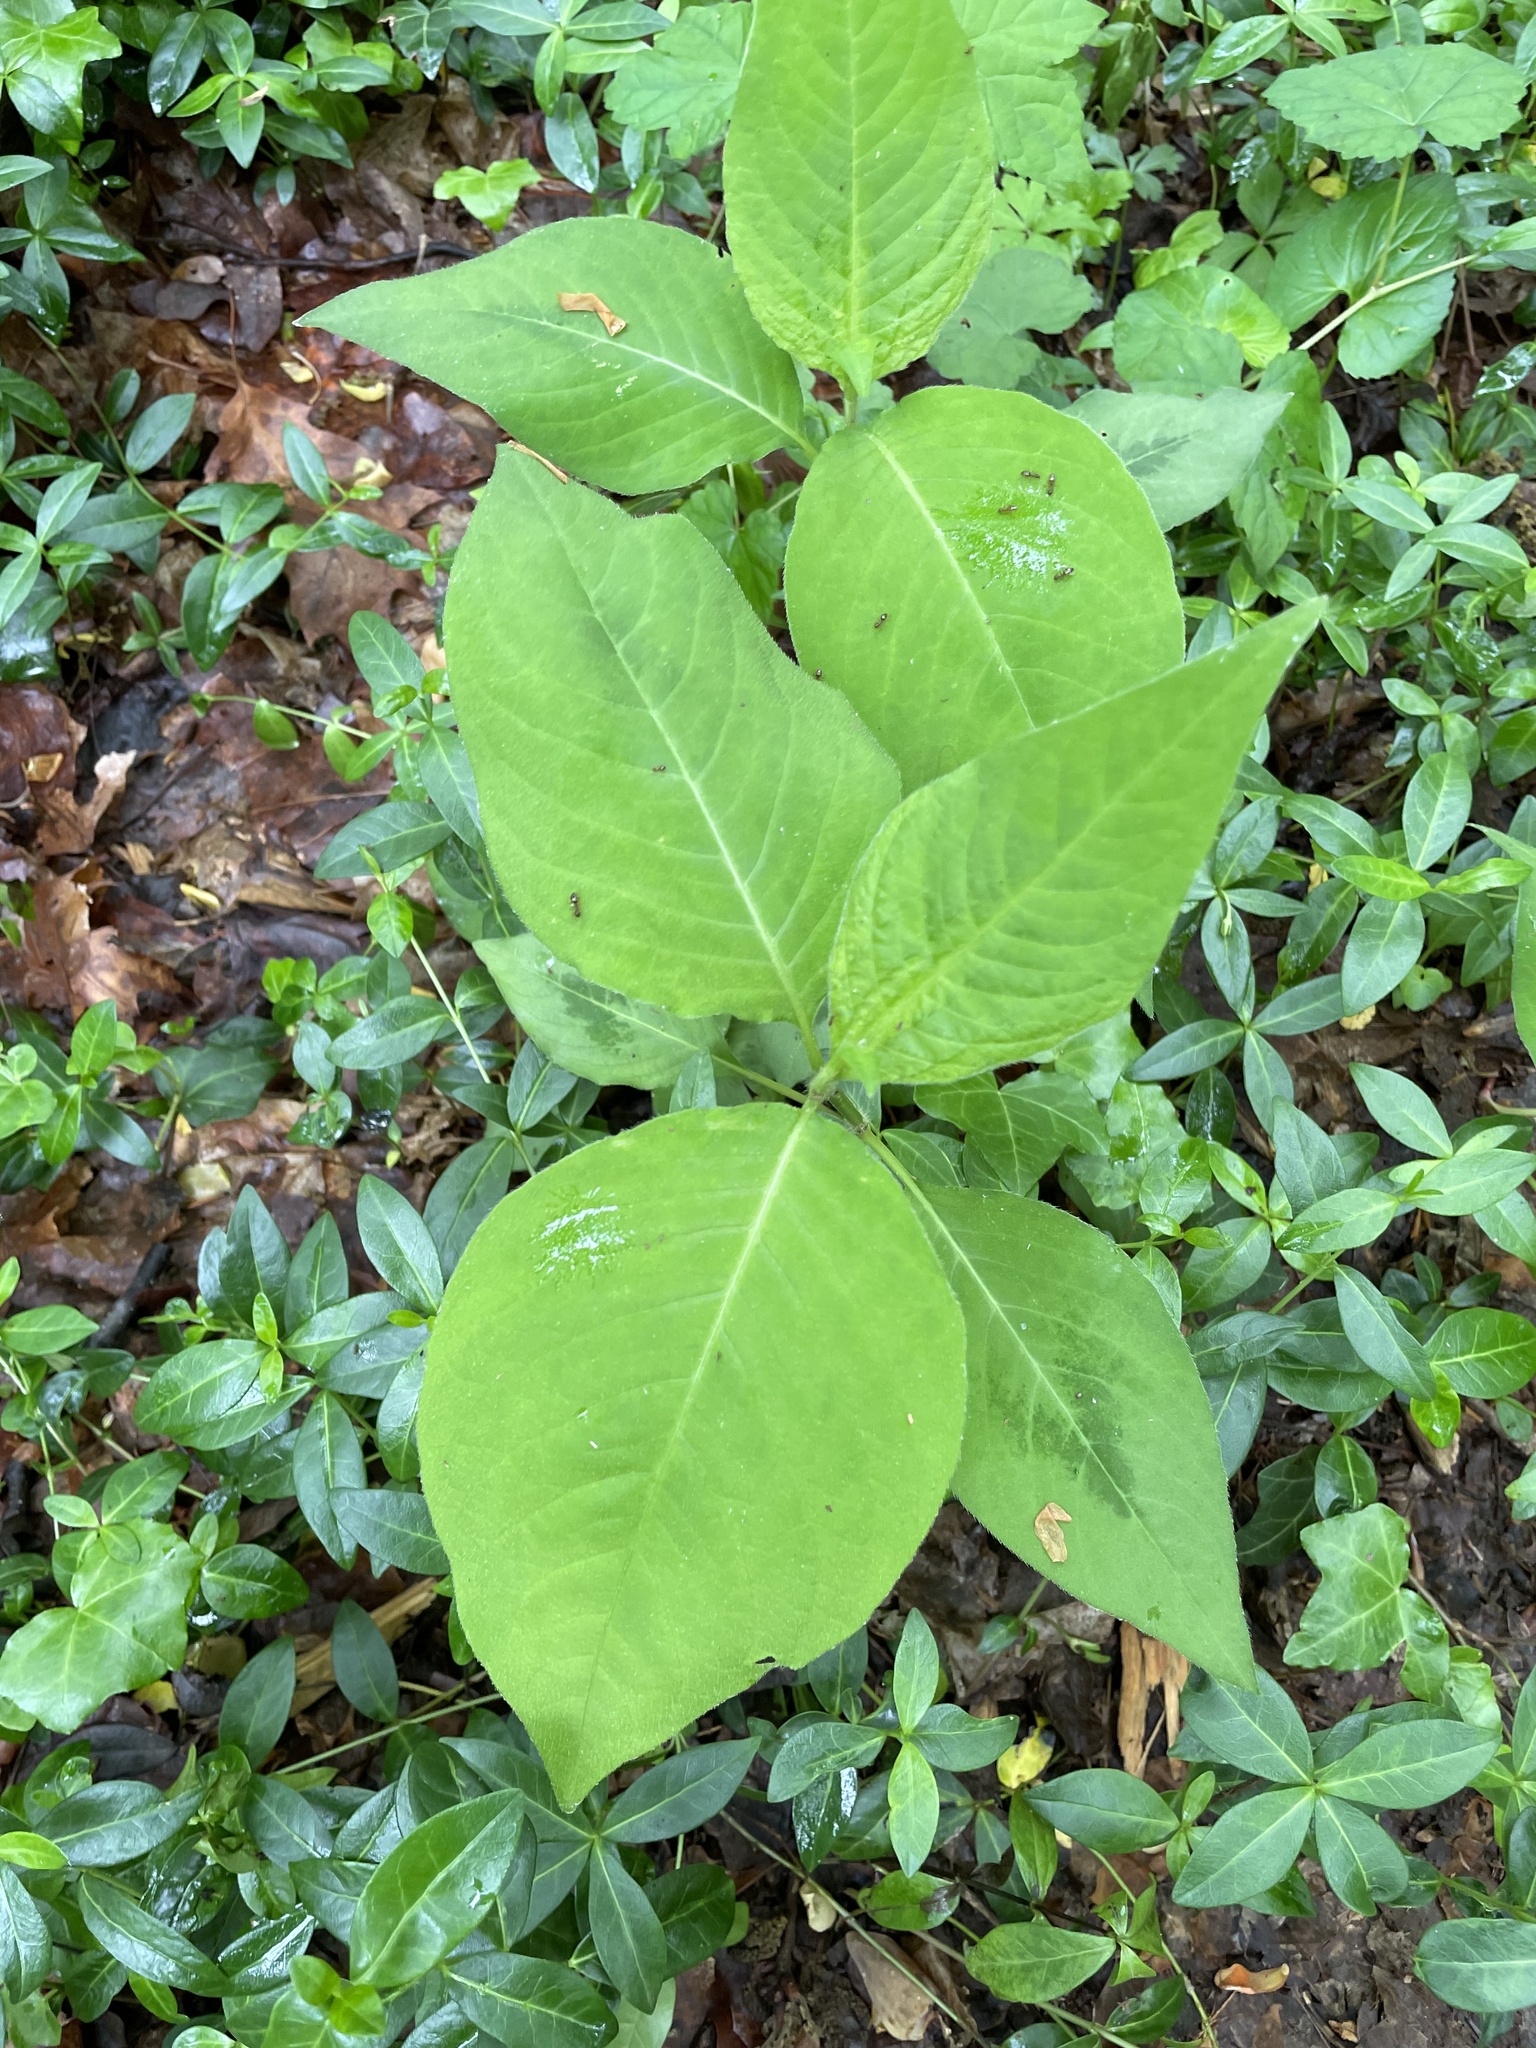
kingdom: Plantae
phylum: Tracheophyta
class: Magnoliopsida
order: Caryophyllales
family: Polygonaceae
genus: Persicaria
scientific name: Persicaria virginiana
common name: Jumpseed
